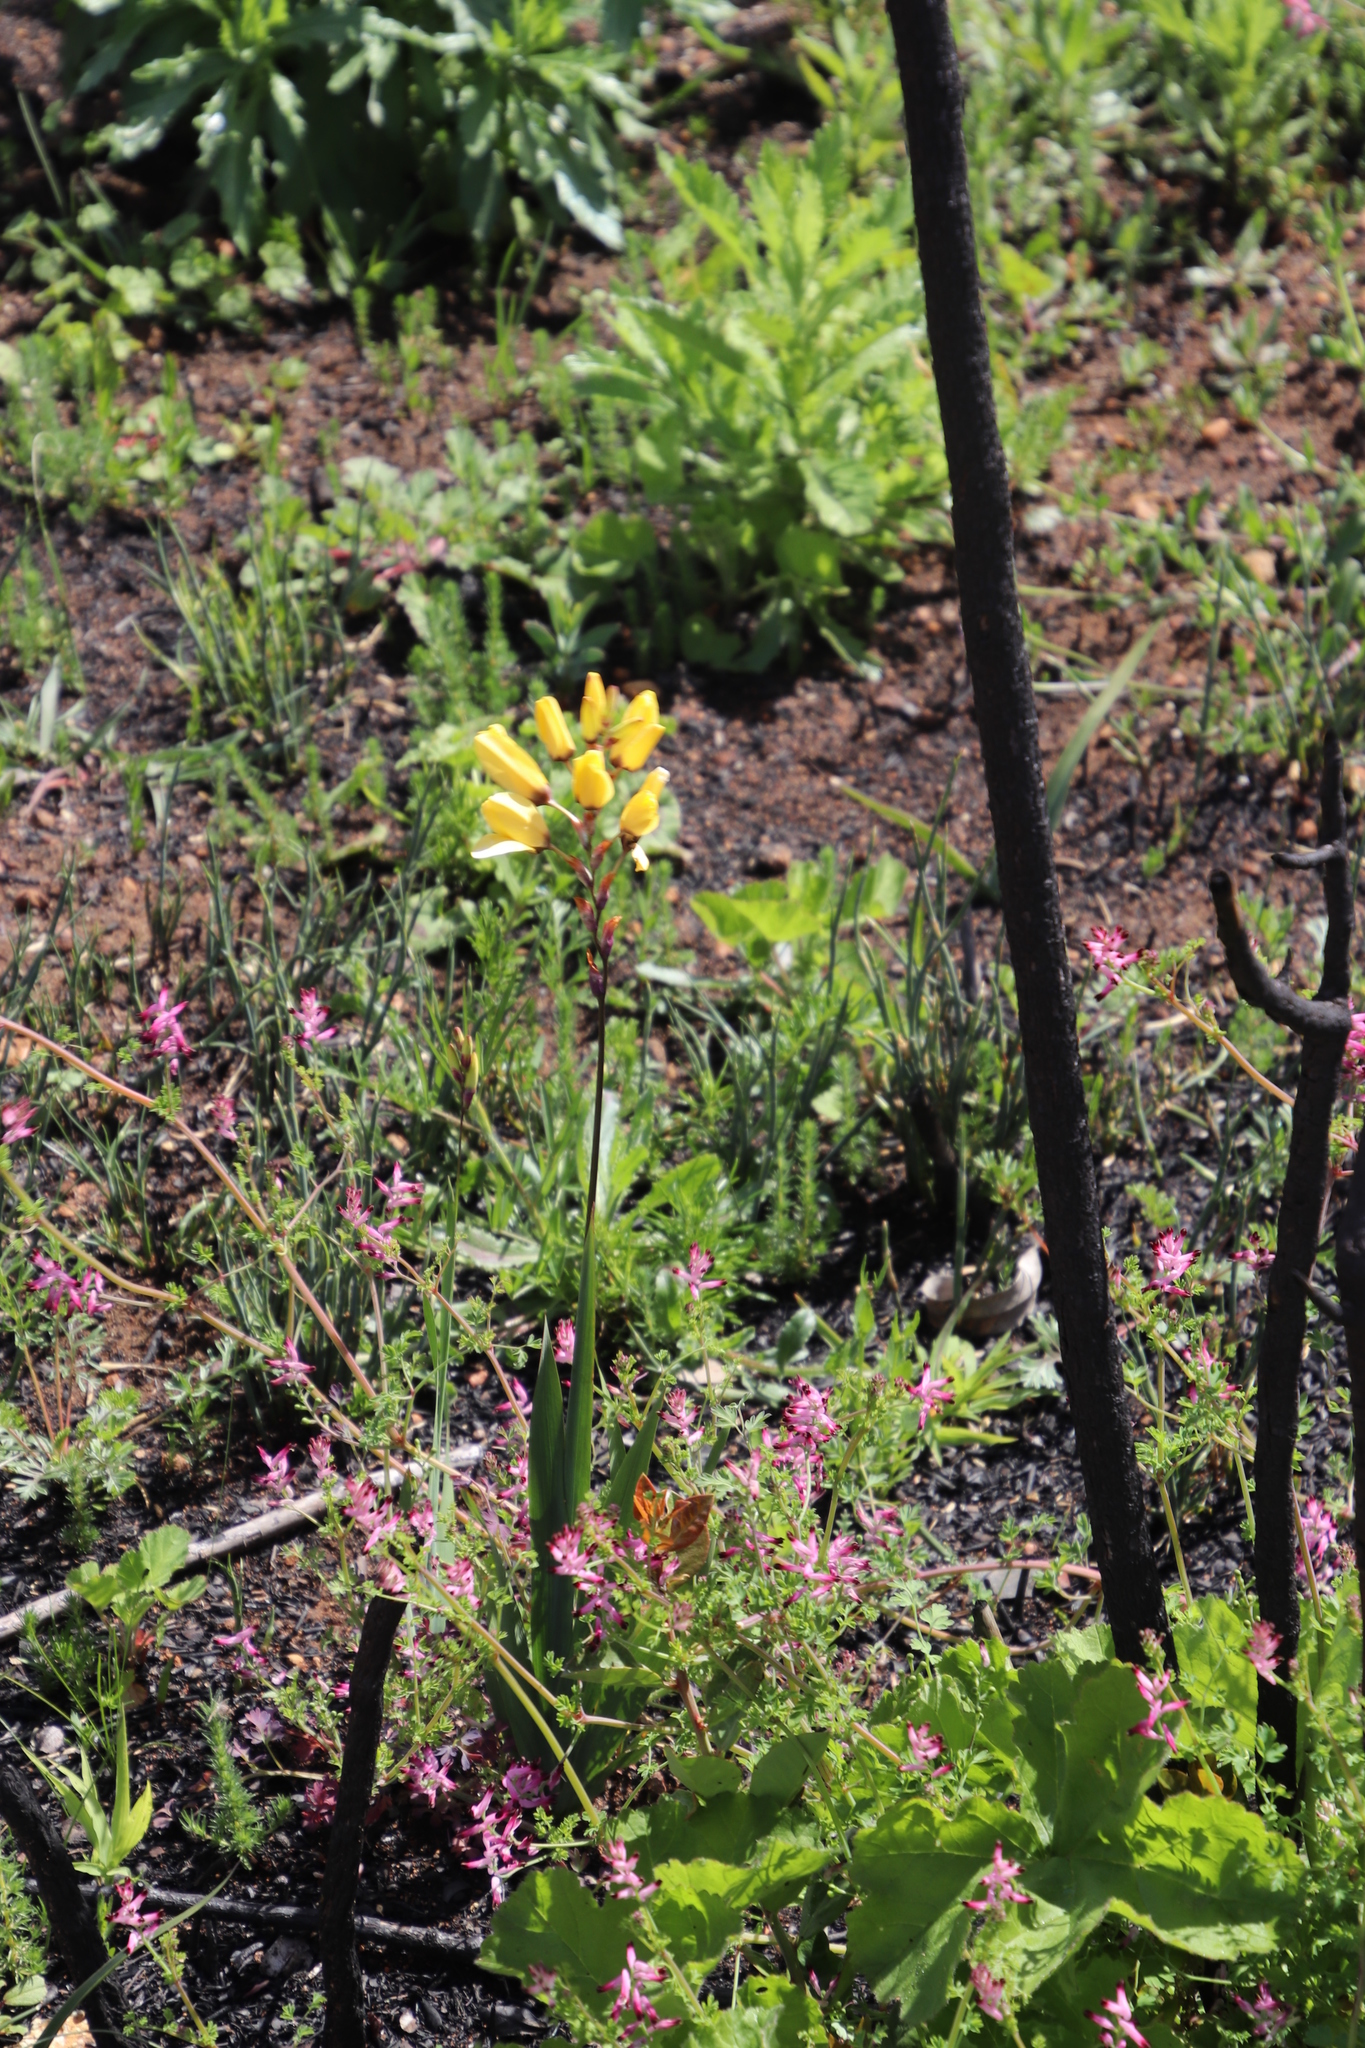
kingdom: Plantae
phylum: Tracheophyta
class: Liliopsida
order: Asparagales
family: Iridaceae
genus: Ixia
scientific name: Ixia dubia
